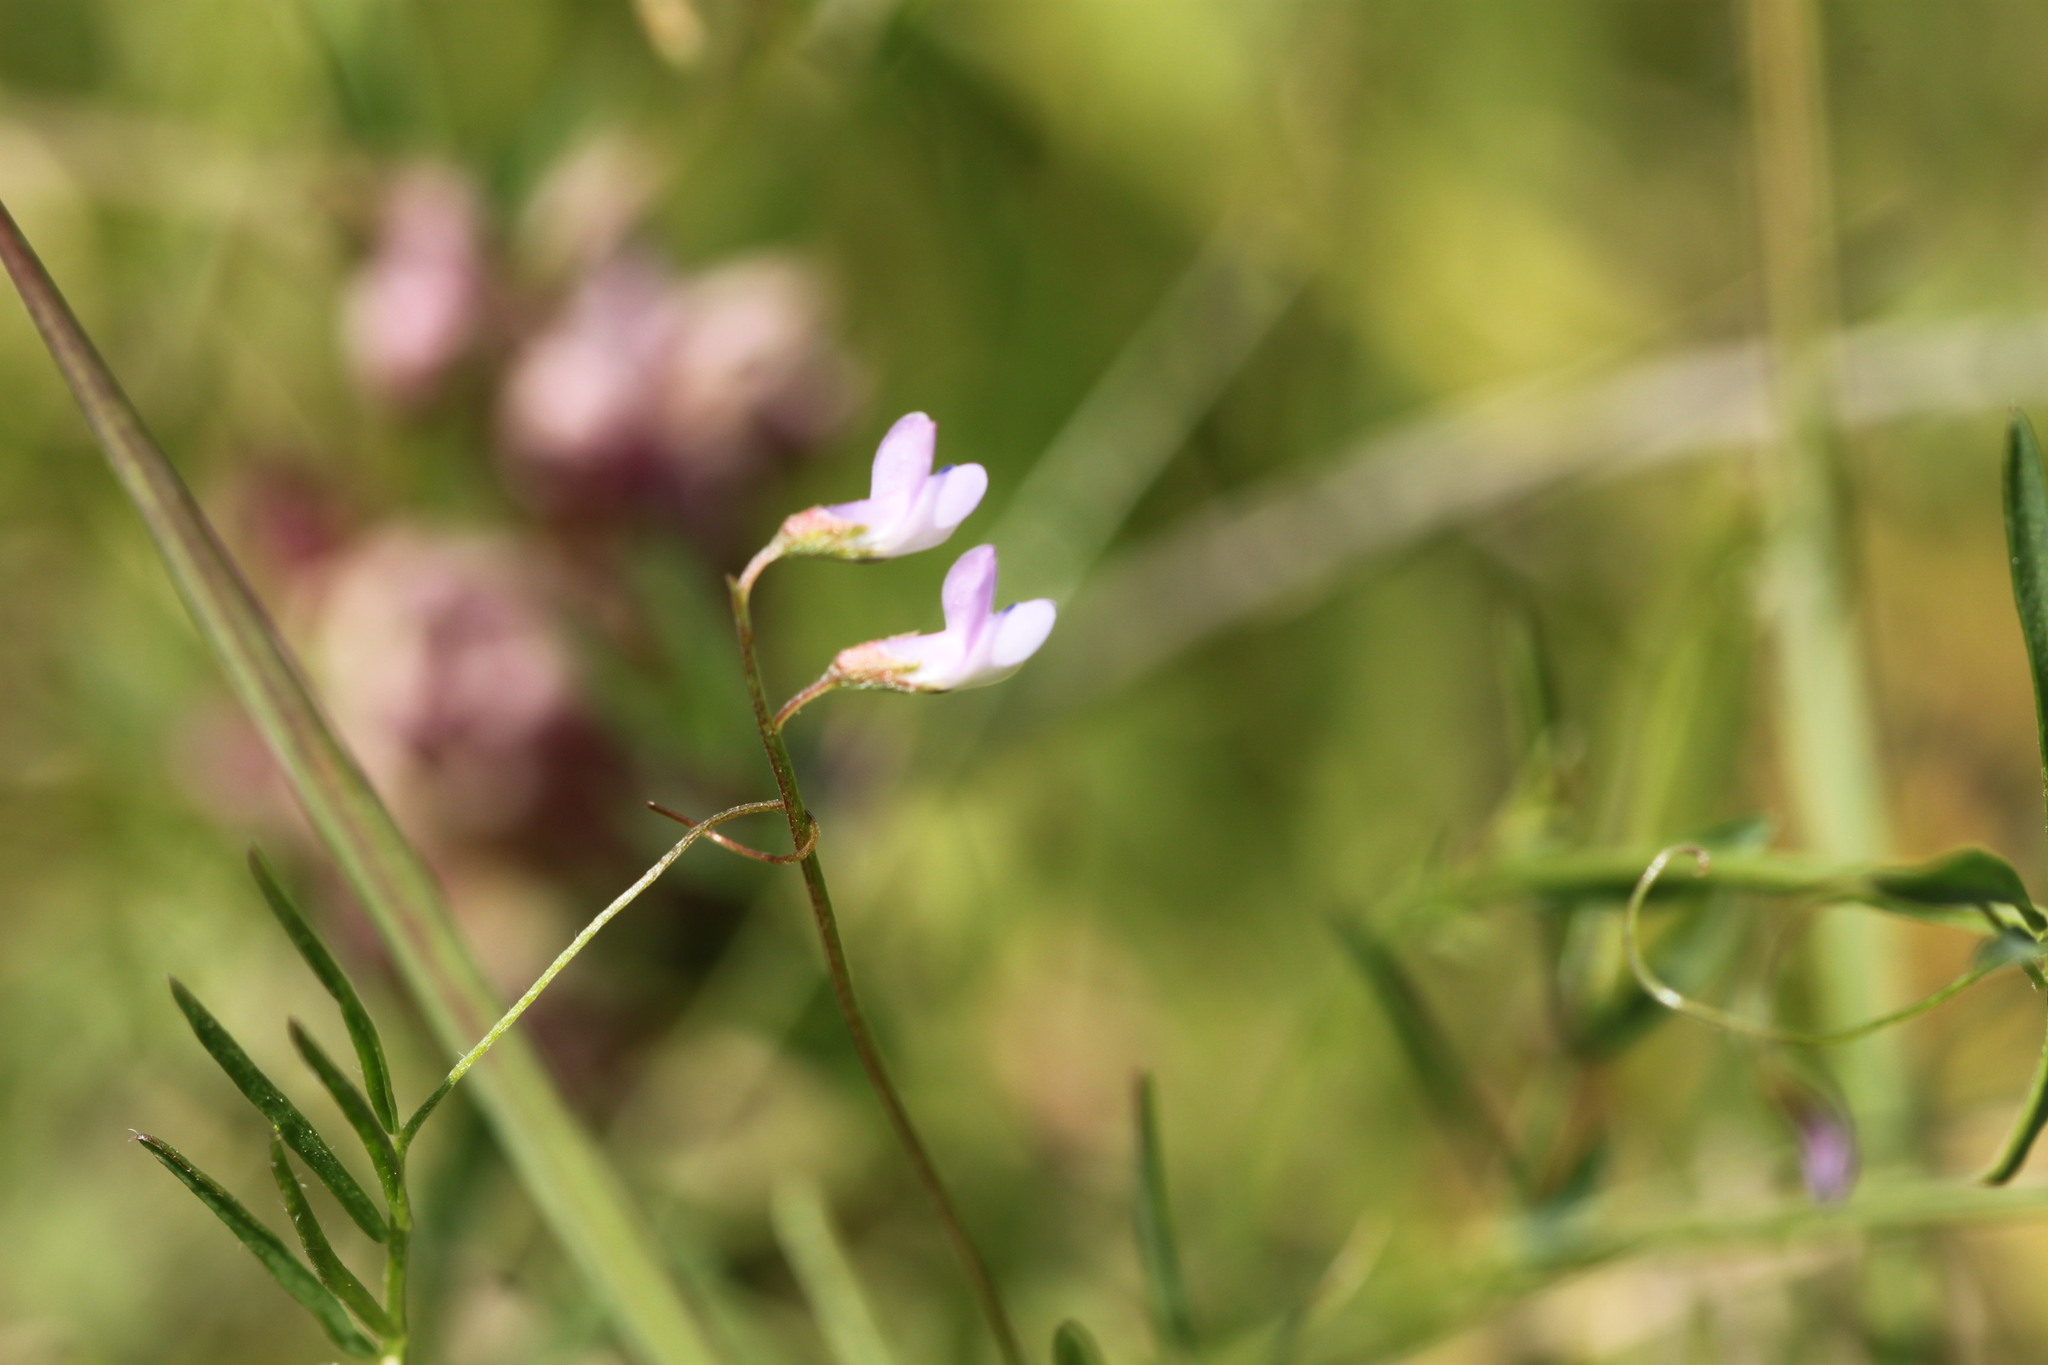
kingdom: Plantae
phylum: Tracheophyta
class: Magnoliopsida
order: Fabales
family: Fabaceae
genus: Vicia
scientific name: Vicia tetrasperma
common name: Smooth tare
